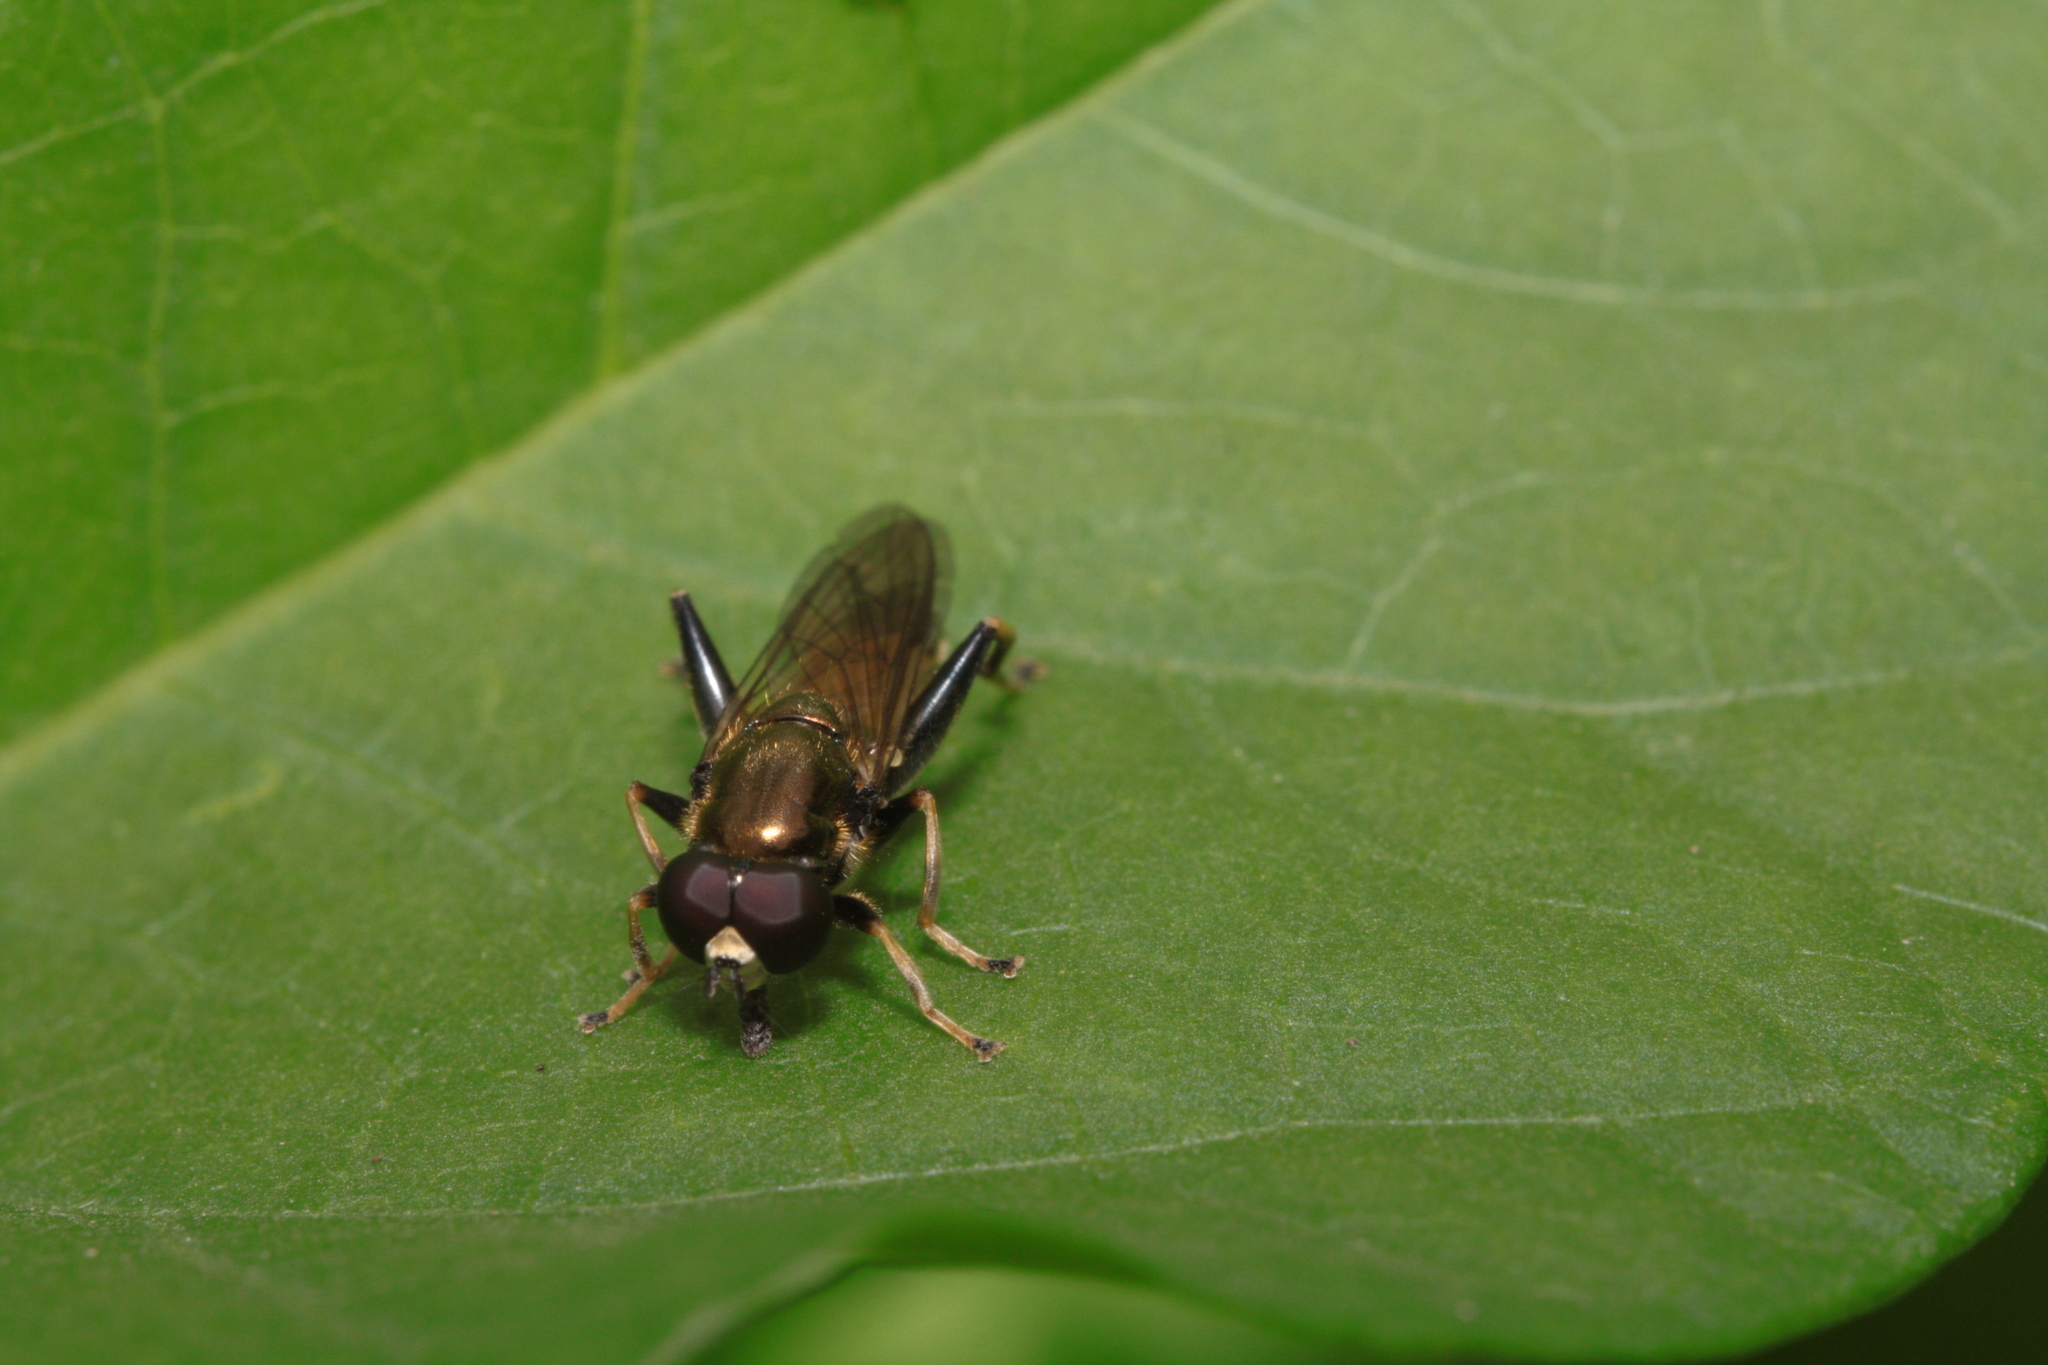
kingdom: Animalia
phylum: Arthropoda
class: Insecta
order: Diptera
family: Syrphidae
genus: Xylota
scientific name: Xylota segnis
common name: Brown-toed forest fly
